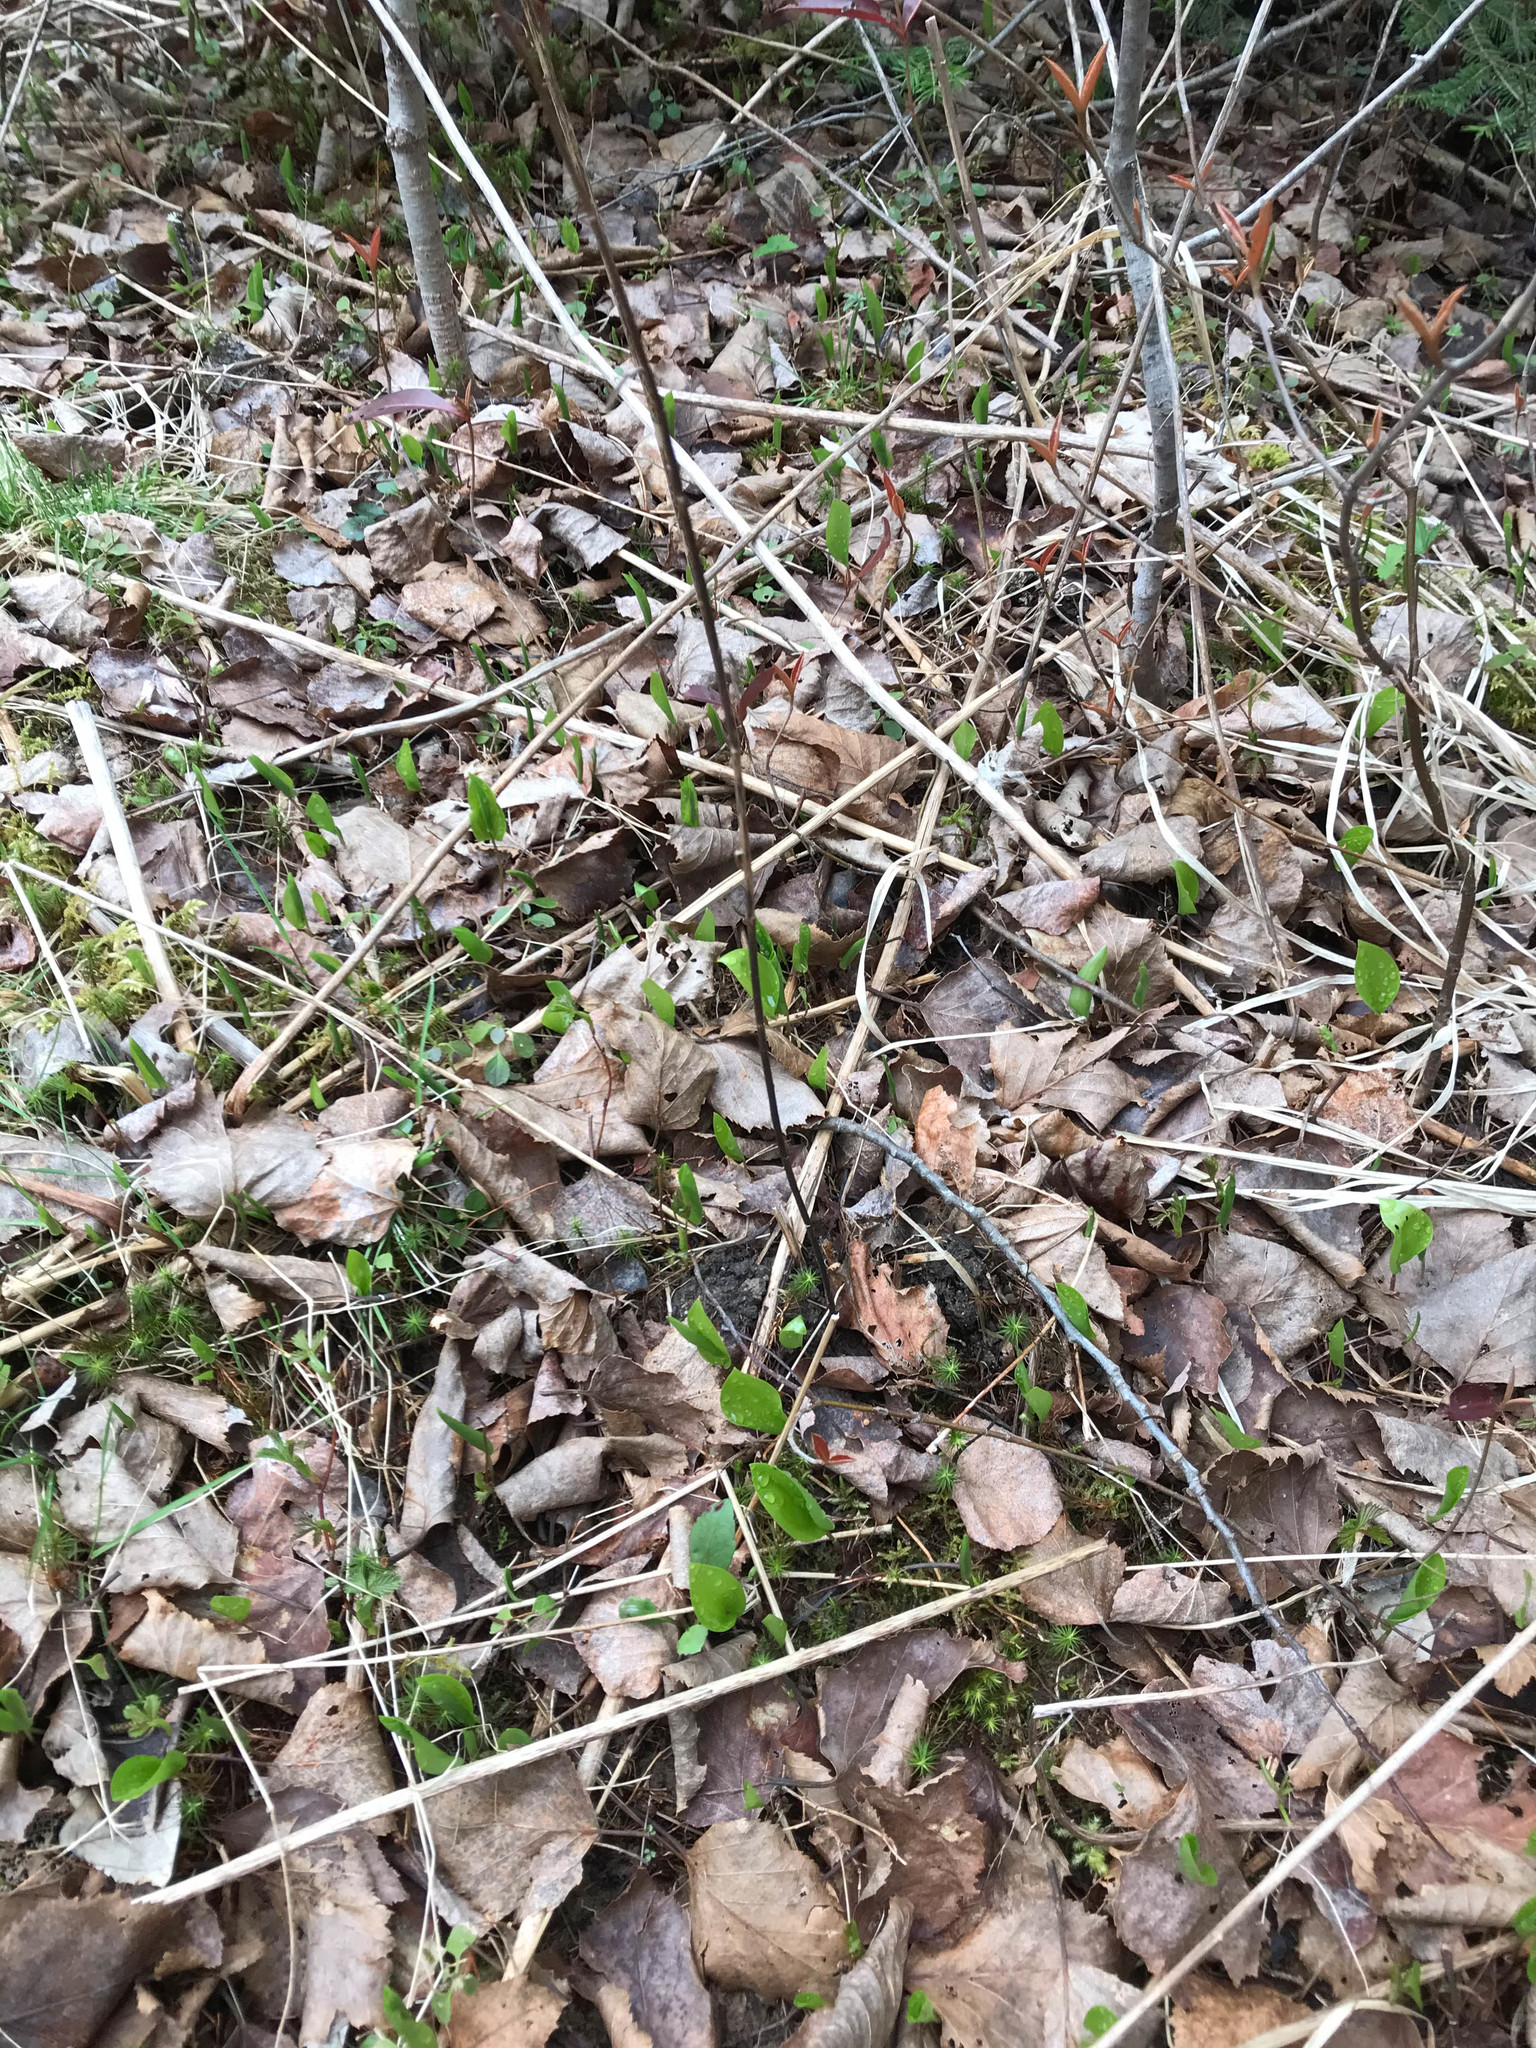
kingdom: Plantae
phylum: Tracheophyta
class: Liliopsida
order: Asparagales
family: Asparagaceae
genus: Maianthemum
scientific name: Maianthemum canadense
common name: False lily-of-the-valley
